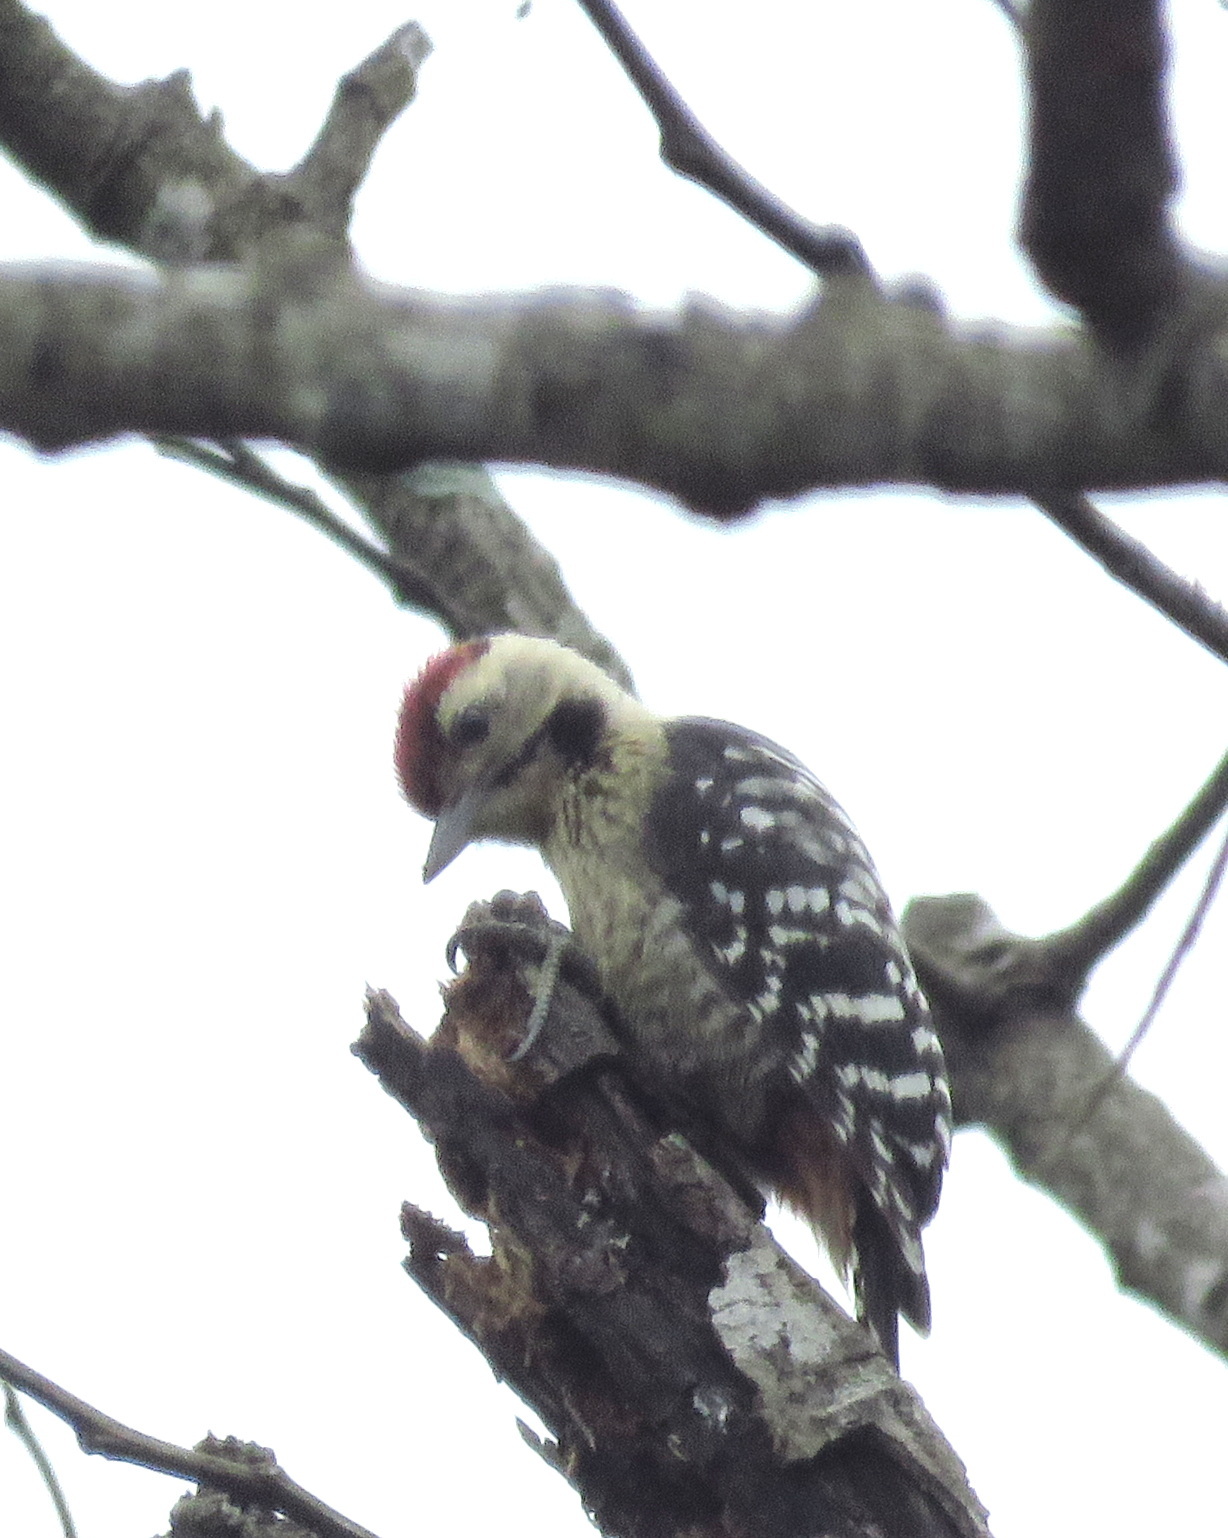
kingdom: Animalia
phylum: Chordata
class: Aves
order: Piciformes
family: Picidae
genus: Dendrocopos
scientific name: Dendrocopos macei
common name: Fulvous-breasted woodpecker
